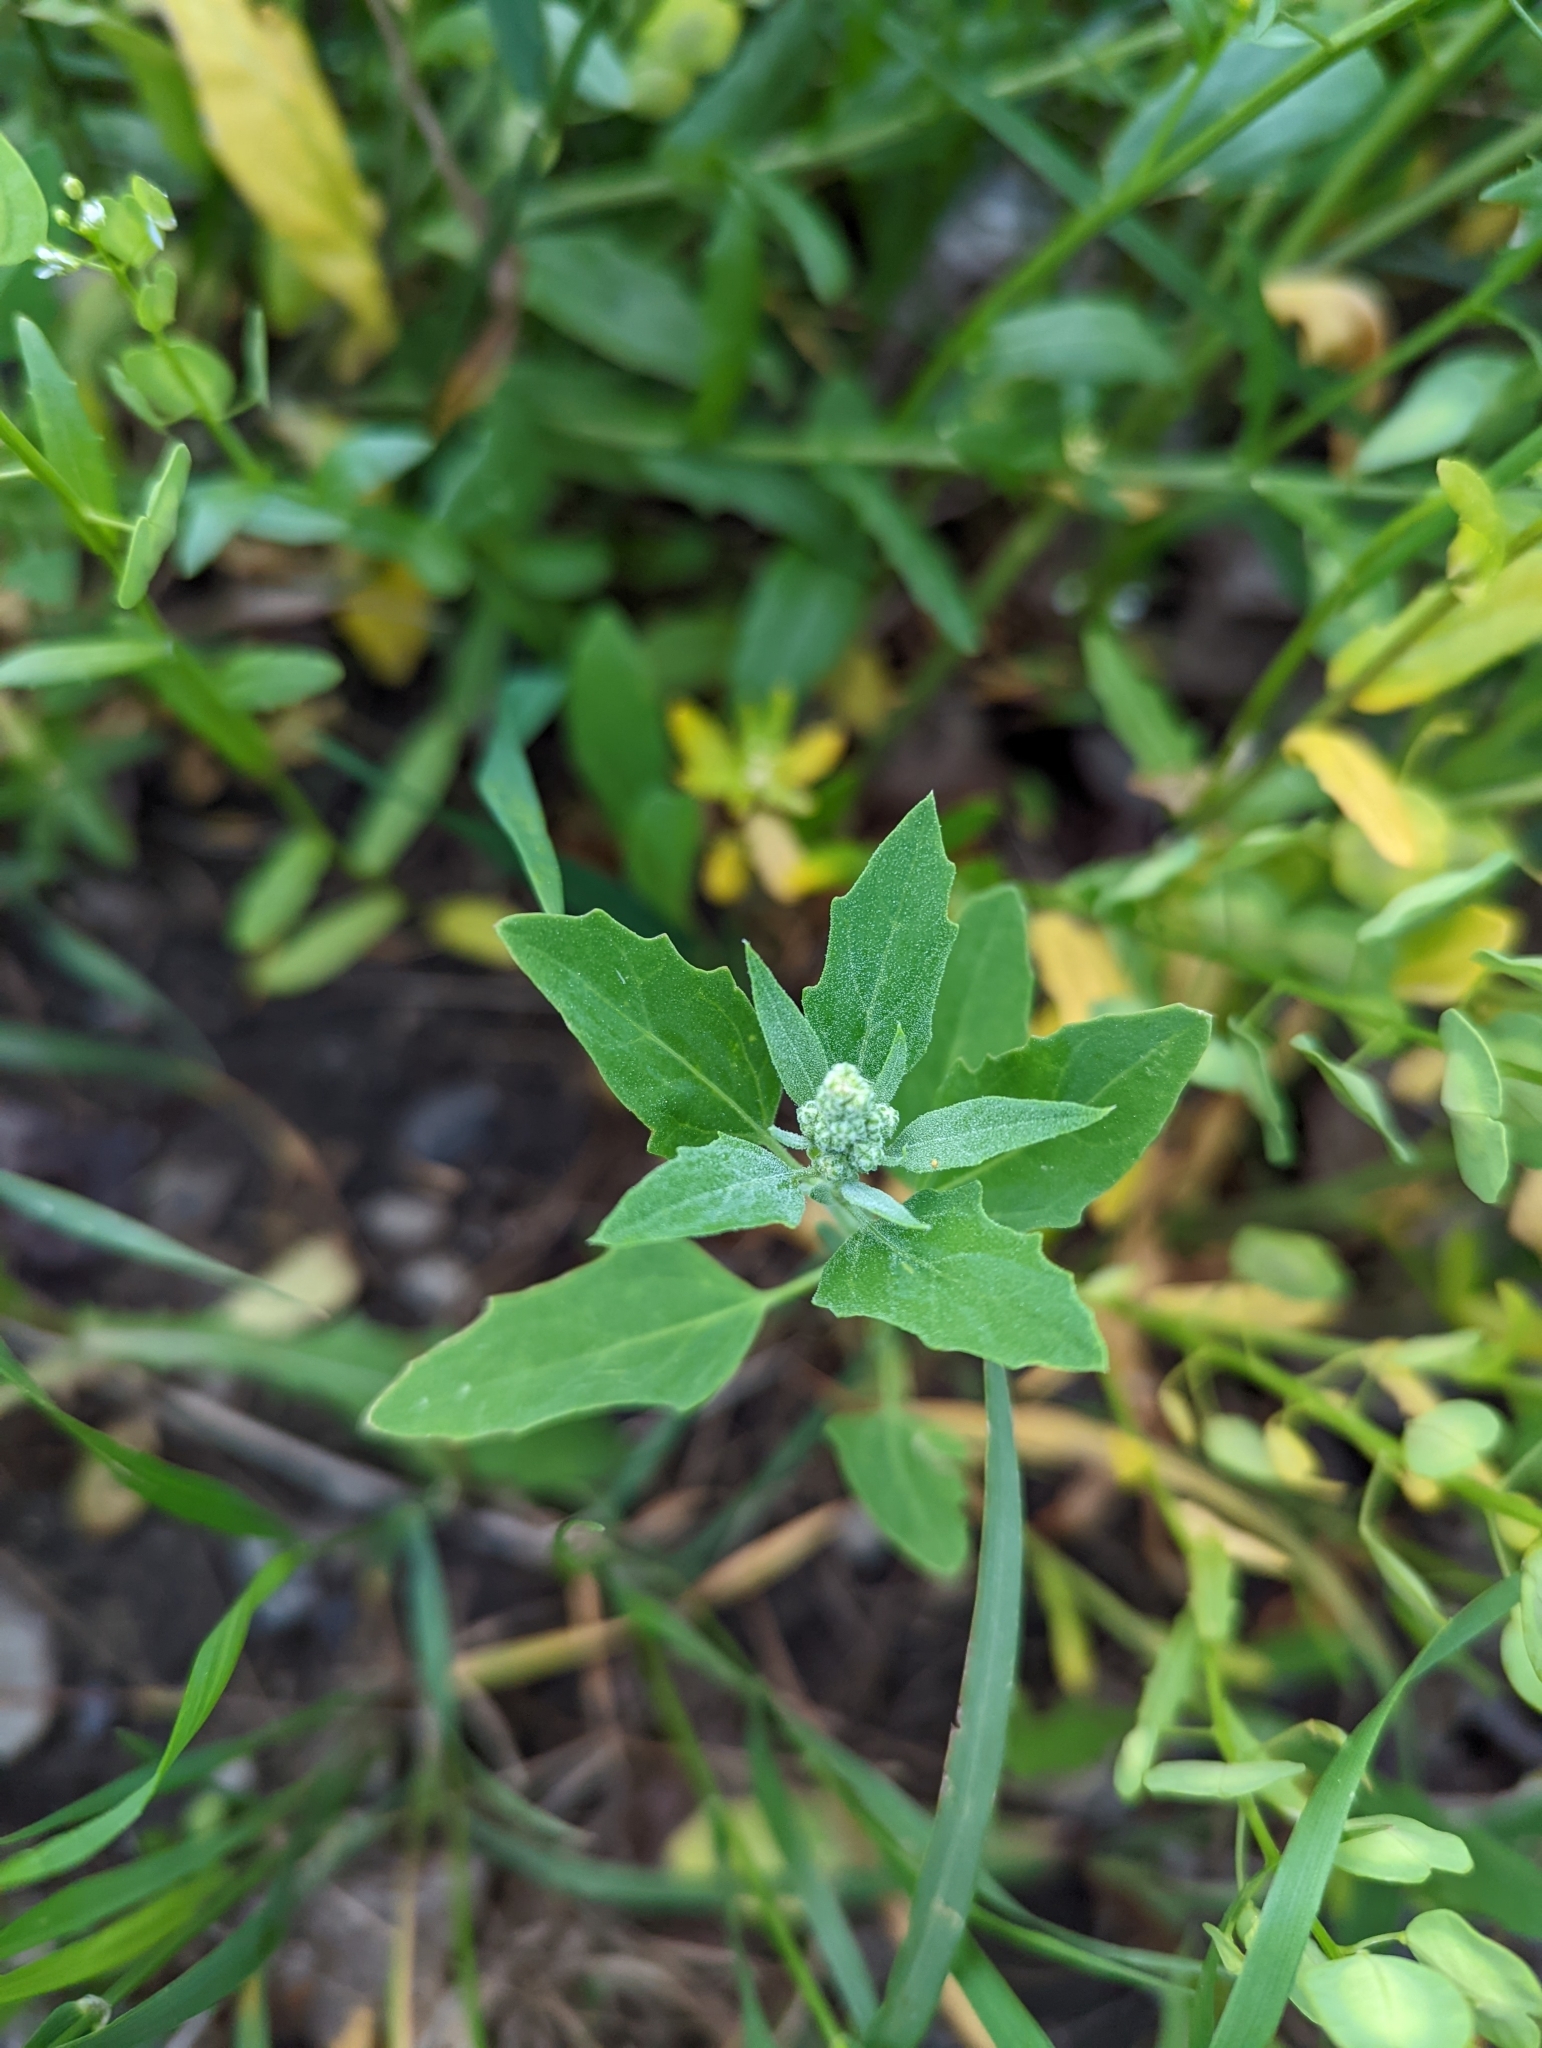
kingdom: Plantae
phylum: Tracheophyta
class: Magnoliopsida
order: Caryophyllales
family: Amaranthaceae
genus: Chenopodium
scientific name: Chenopodium album
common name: Fat-hen
